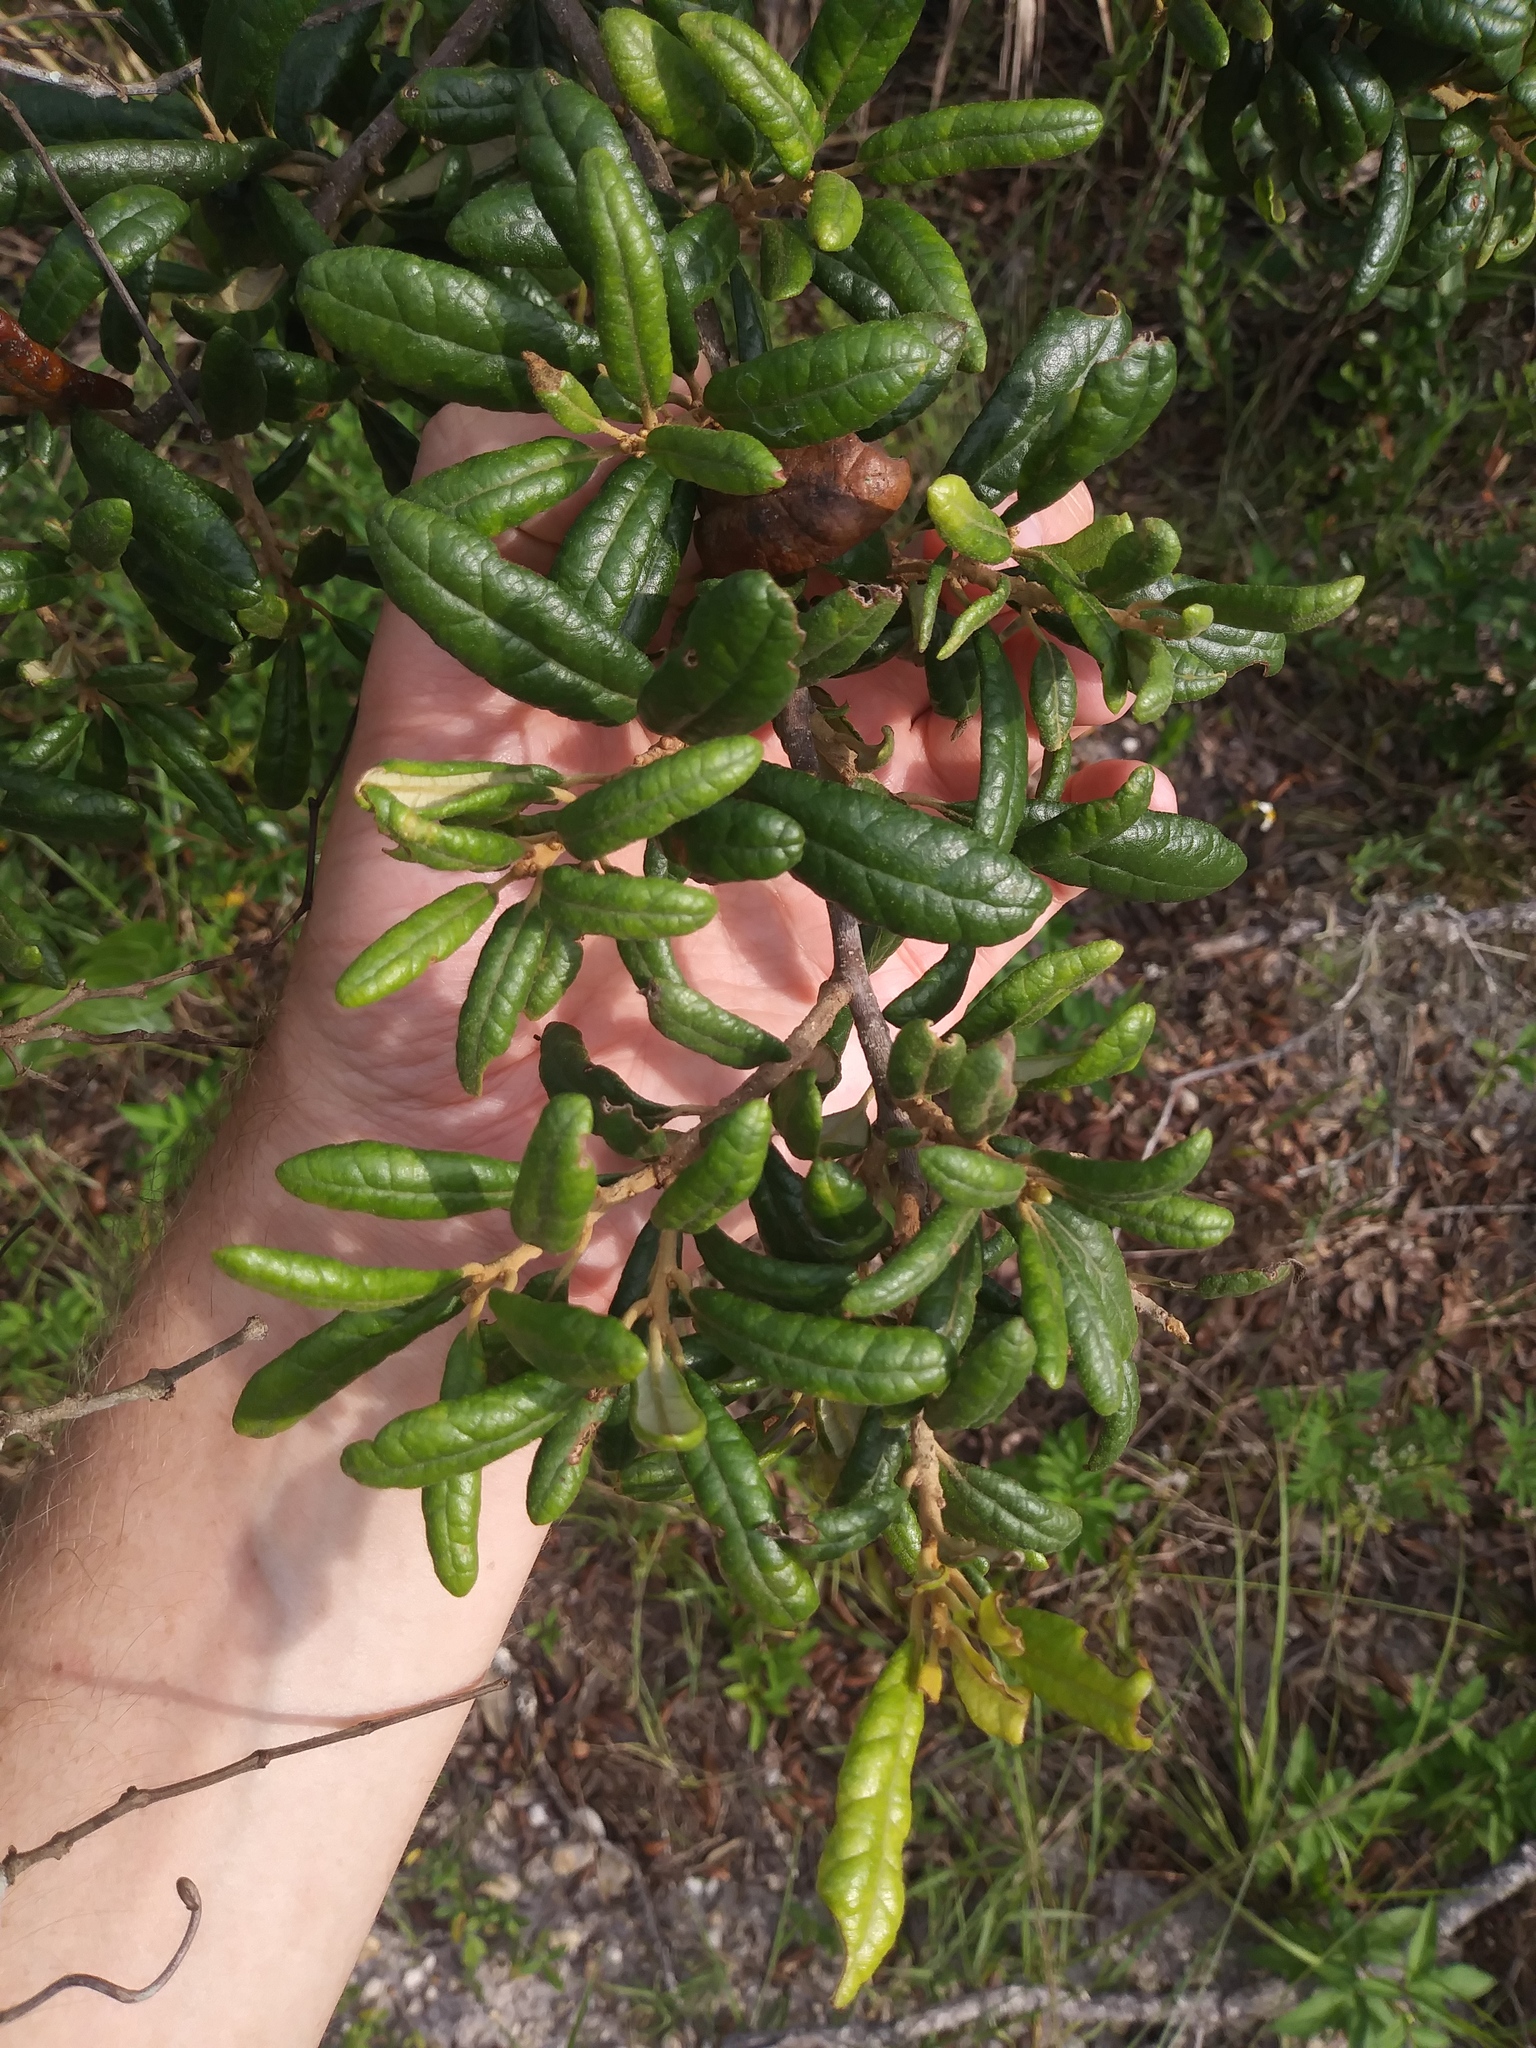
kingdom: Plantae
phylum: Tracheophyta
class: Magnoliopsida
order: Fagales
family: Fagaceae
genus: Quercus
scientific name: Quercus geminata
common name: Sand live oak
